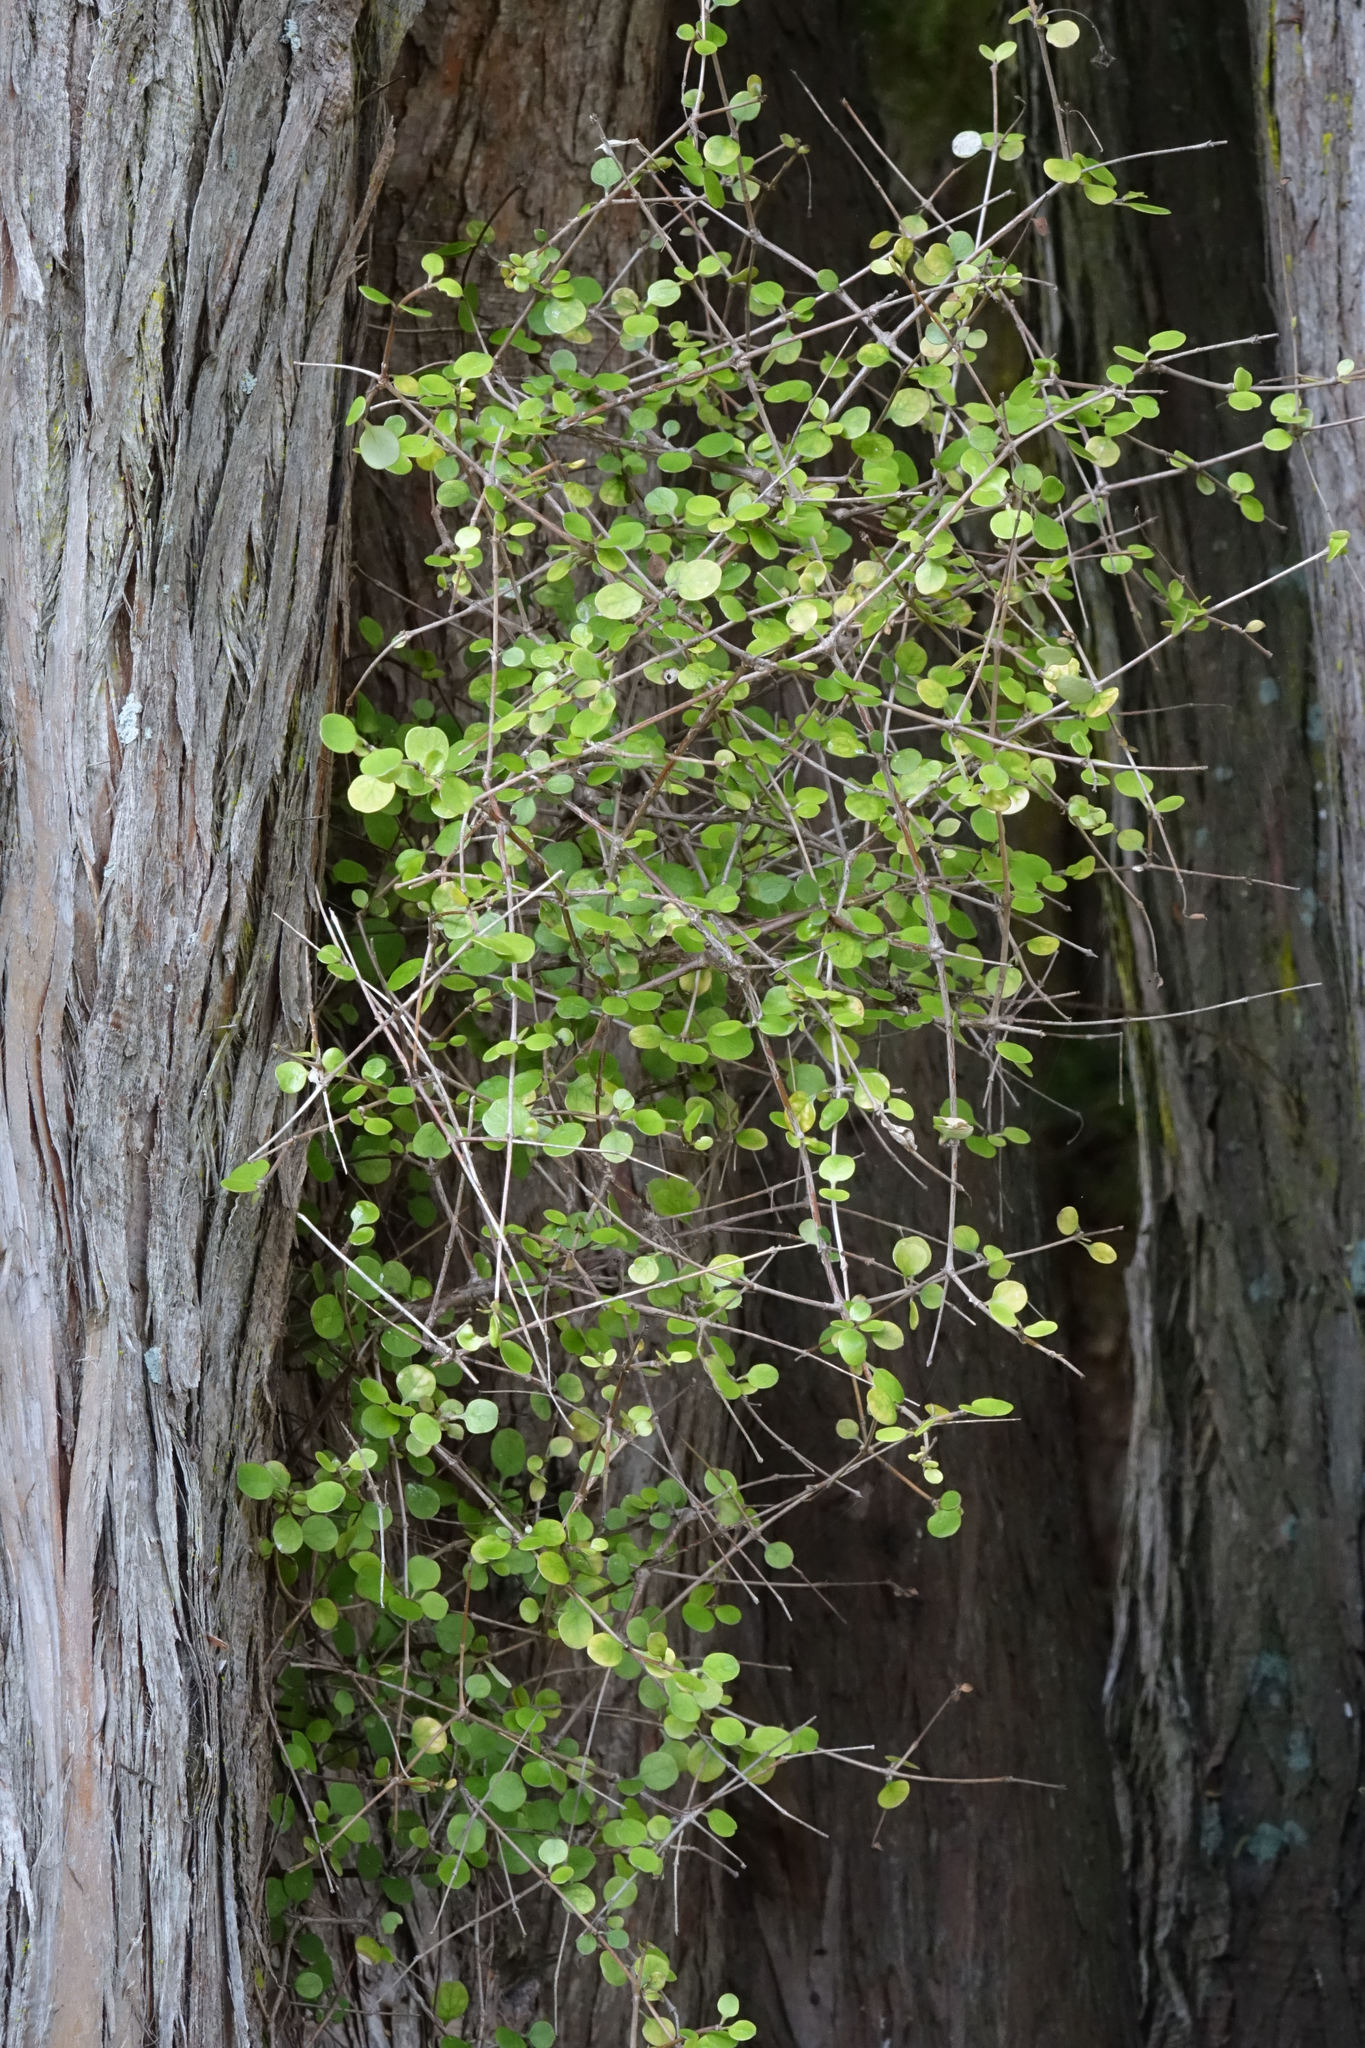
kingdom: Plantae
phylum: Tracheophyta
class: Magnoliopsida
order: Gentianales
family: Rubiaceae
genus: Coprosma
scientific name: Coprosma crassifolia
